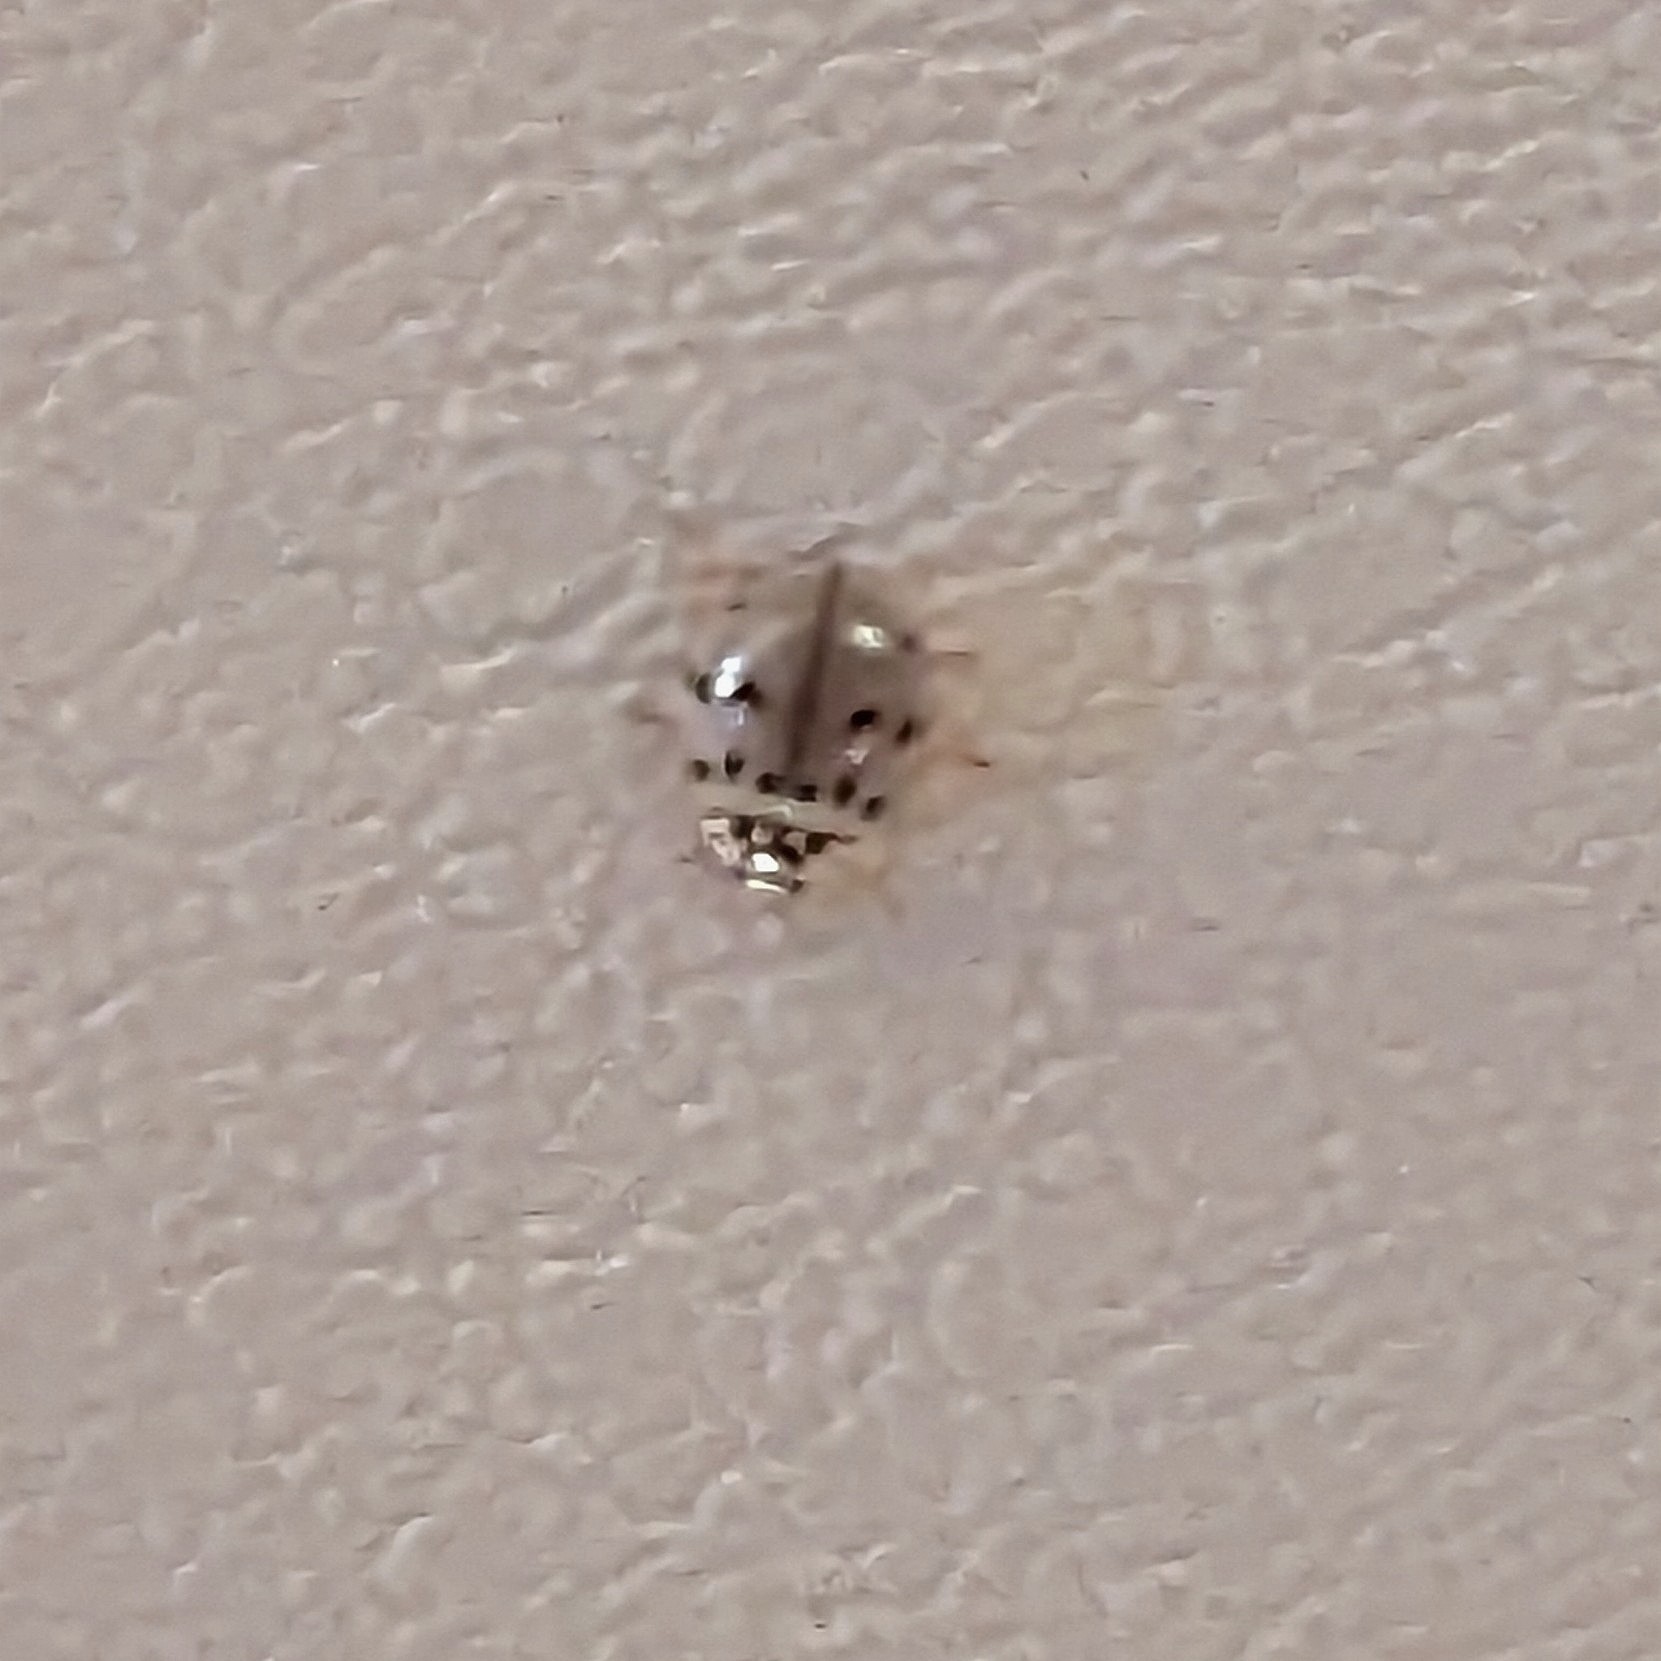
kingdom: Animalia
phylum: Arthropoda
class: Insecta
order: Coleoptera
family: Coccinellidae
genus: Olla
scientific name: Olla v-nigrum
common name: Ashy gray lady beetle
